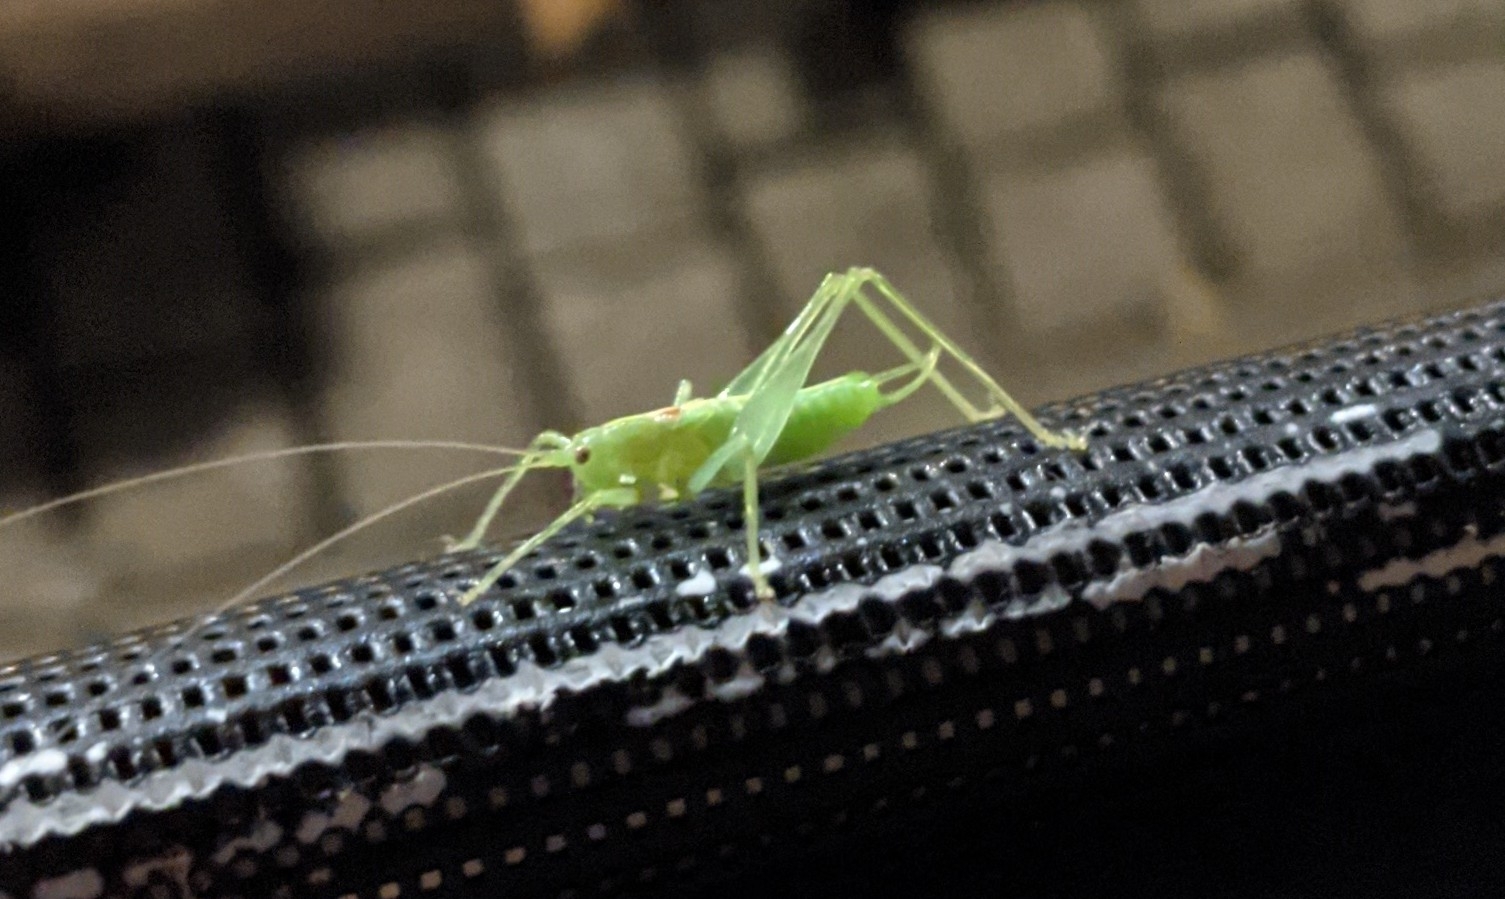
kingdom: Animalia
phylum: Arthropoda
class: Insecta
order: Orthoptera
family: Tettigoniidae
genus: Meconema
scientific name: Meconema meridionale
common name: Southern oak bush-cricket
